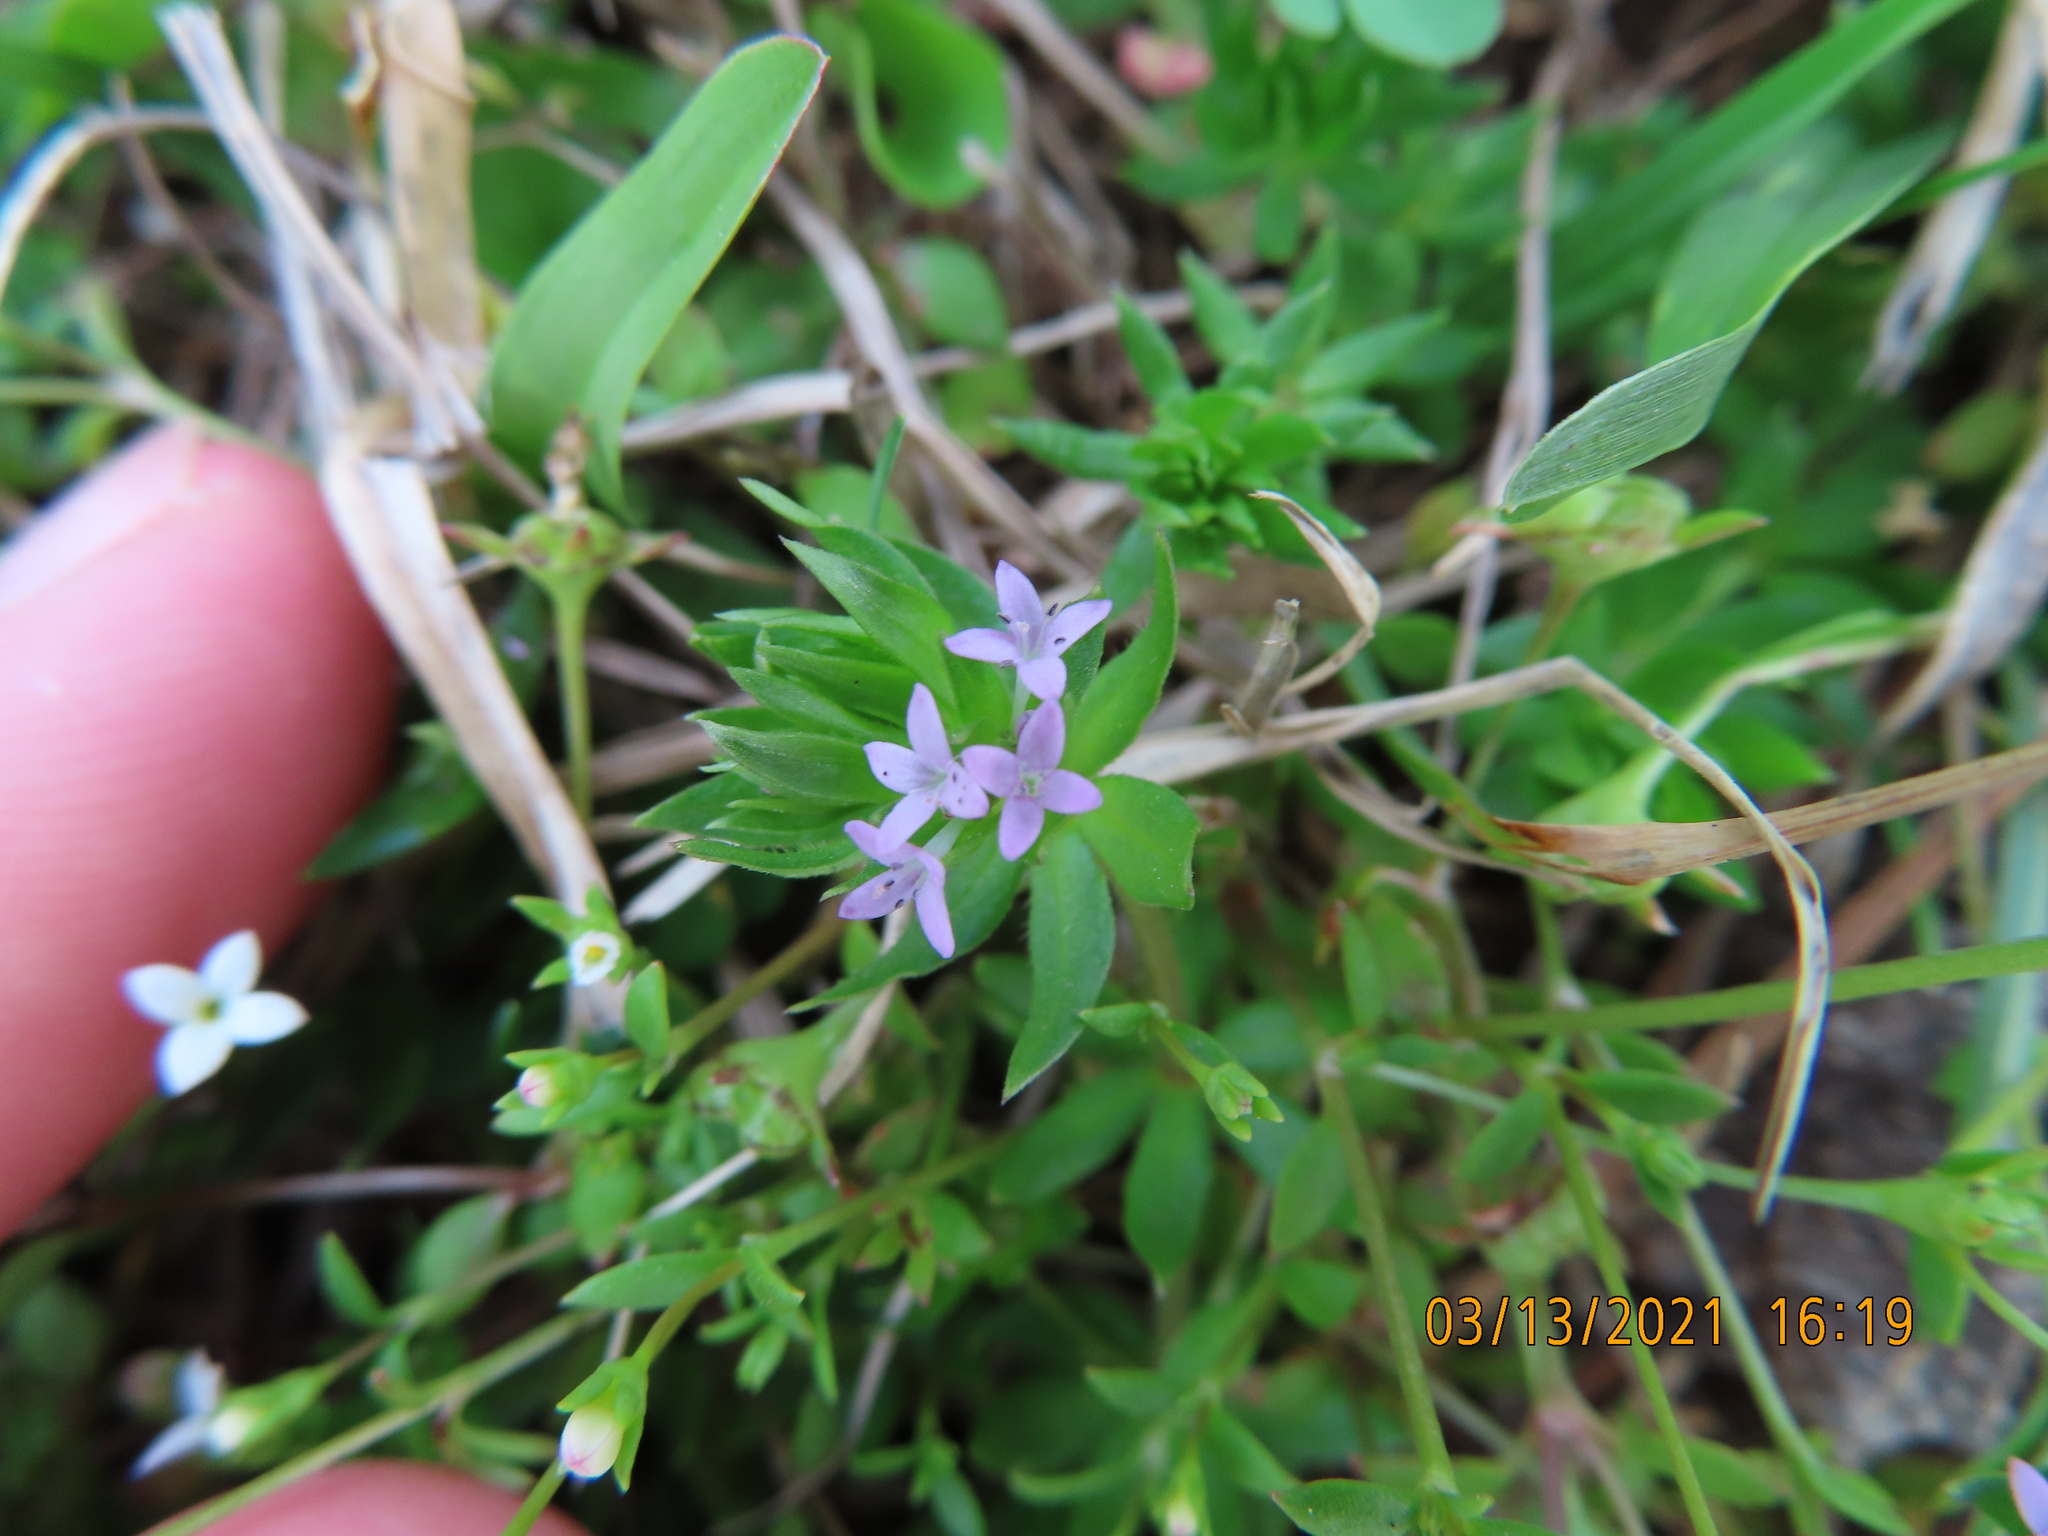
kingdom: Plantae
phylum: Tracheophyta
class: Magnoliopsida
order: Gentianales
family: Rubiaceae
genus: Sherardia
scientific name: Sherardia arvensis
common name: Field madder
